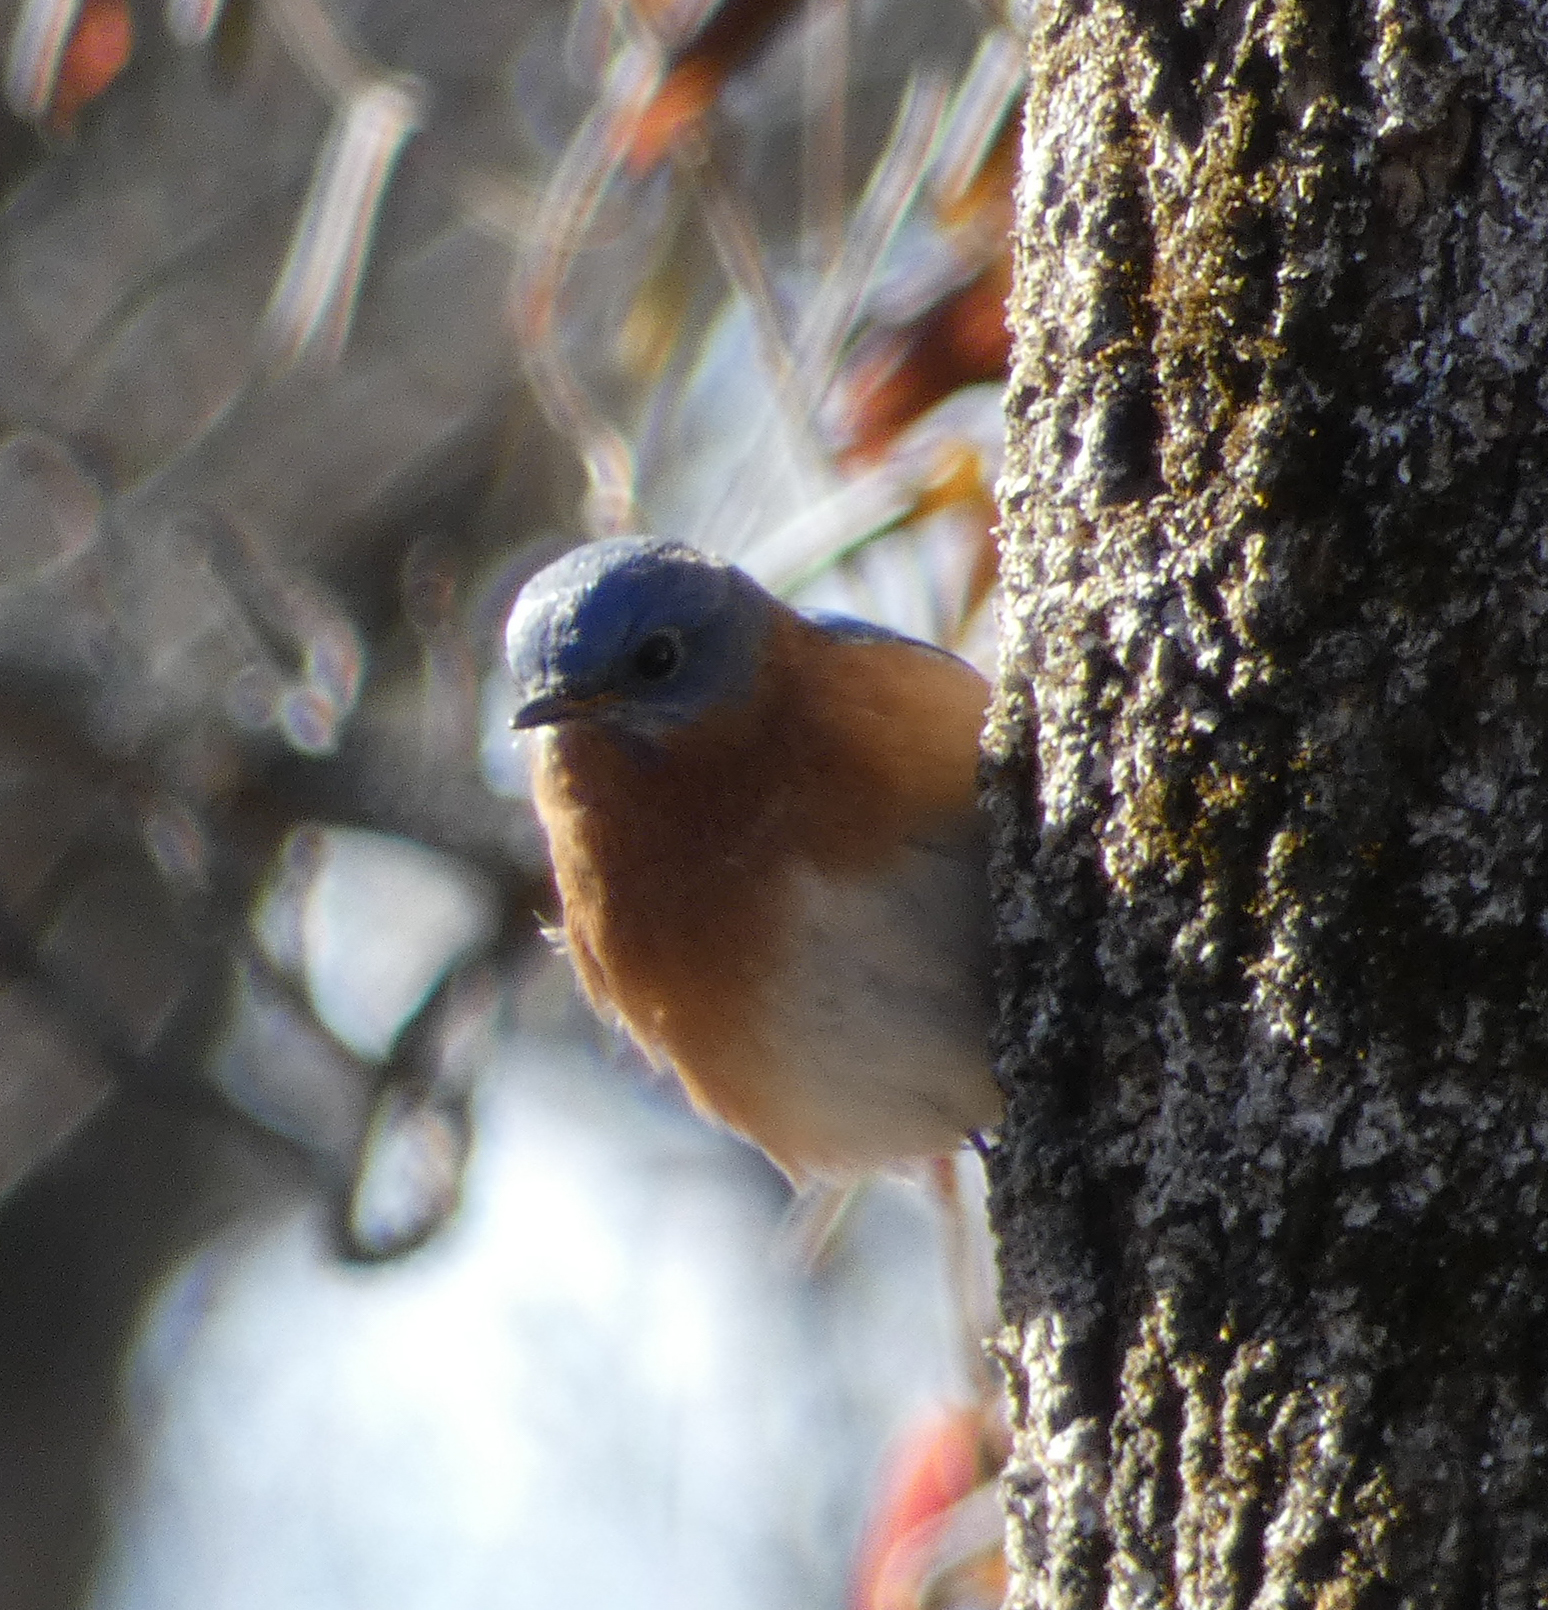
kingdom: Animalia
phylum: Chordata
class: Aves
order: Passeriformes
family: Turdidae
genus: Sialia
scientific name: Sialia sialis
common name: Eastern bluebird
